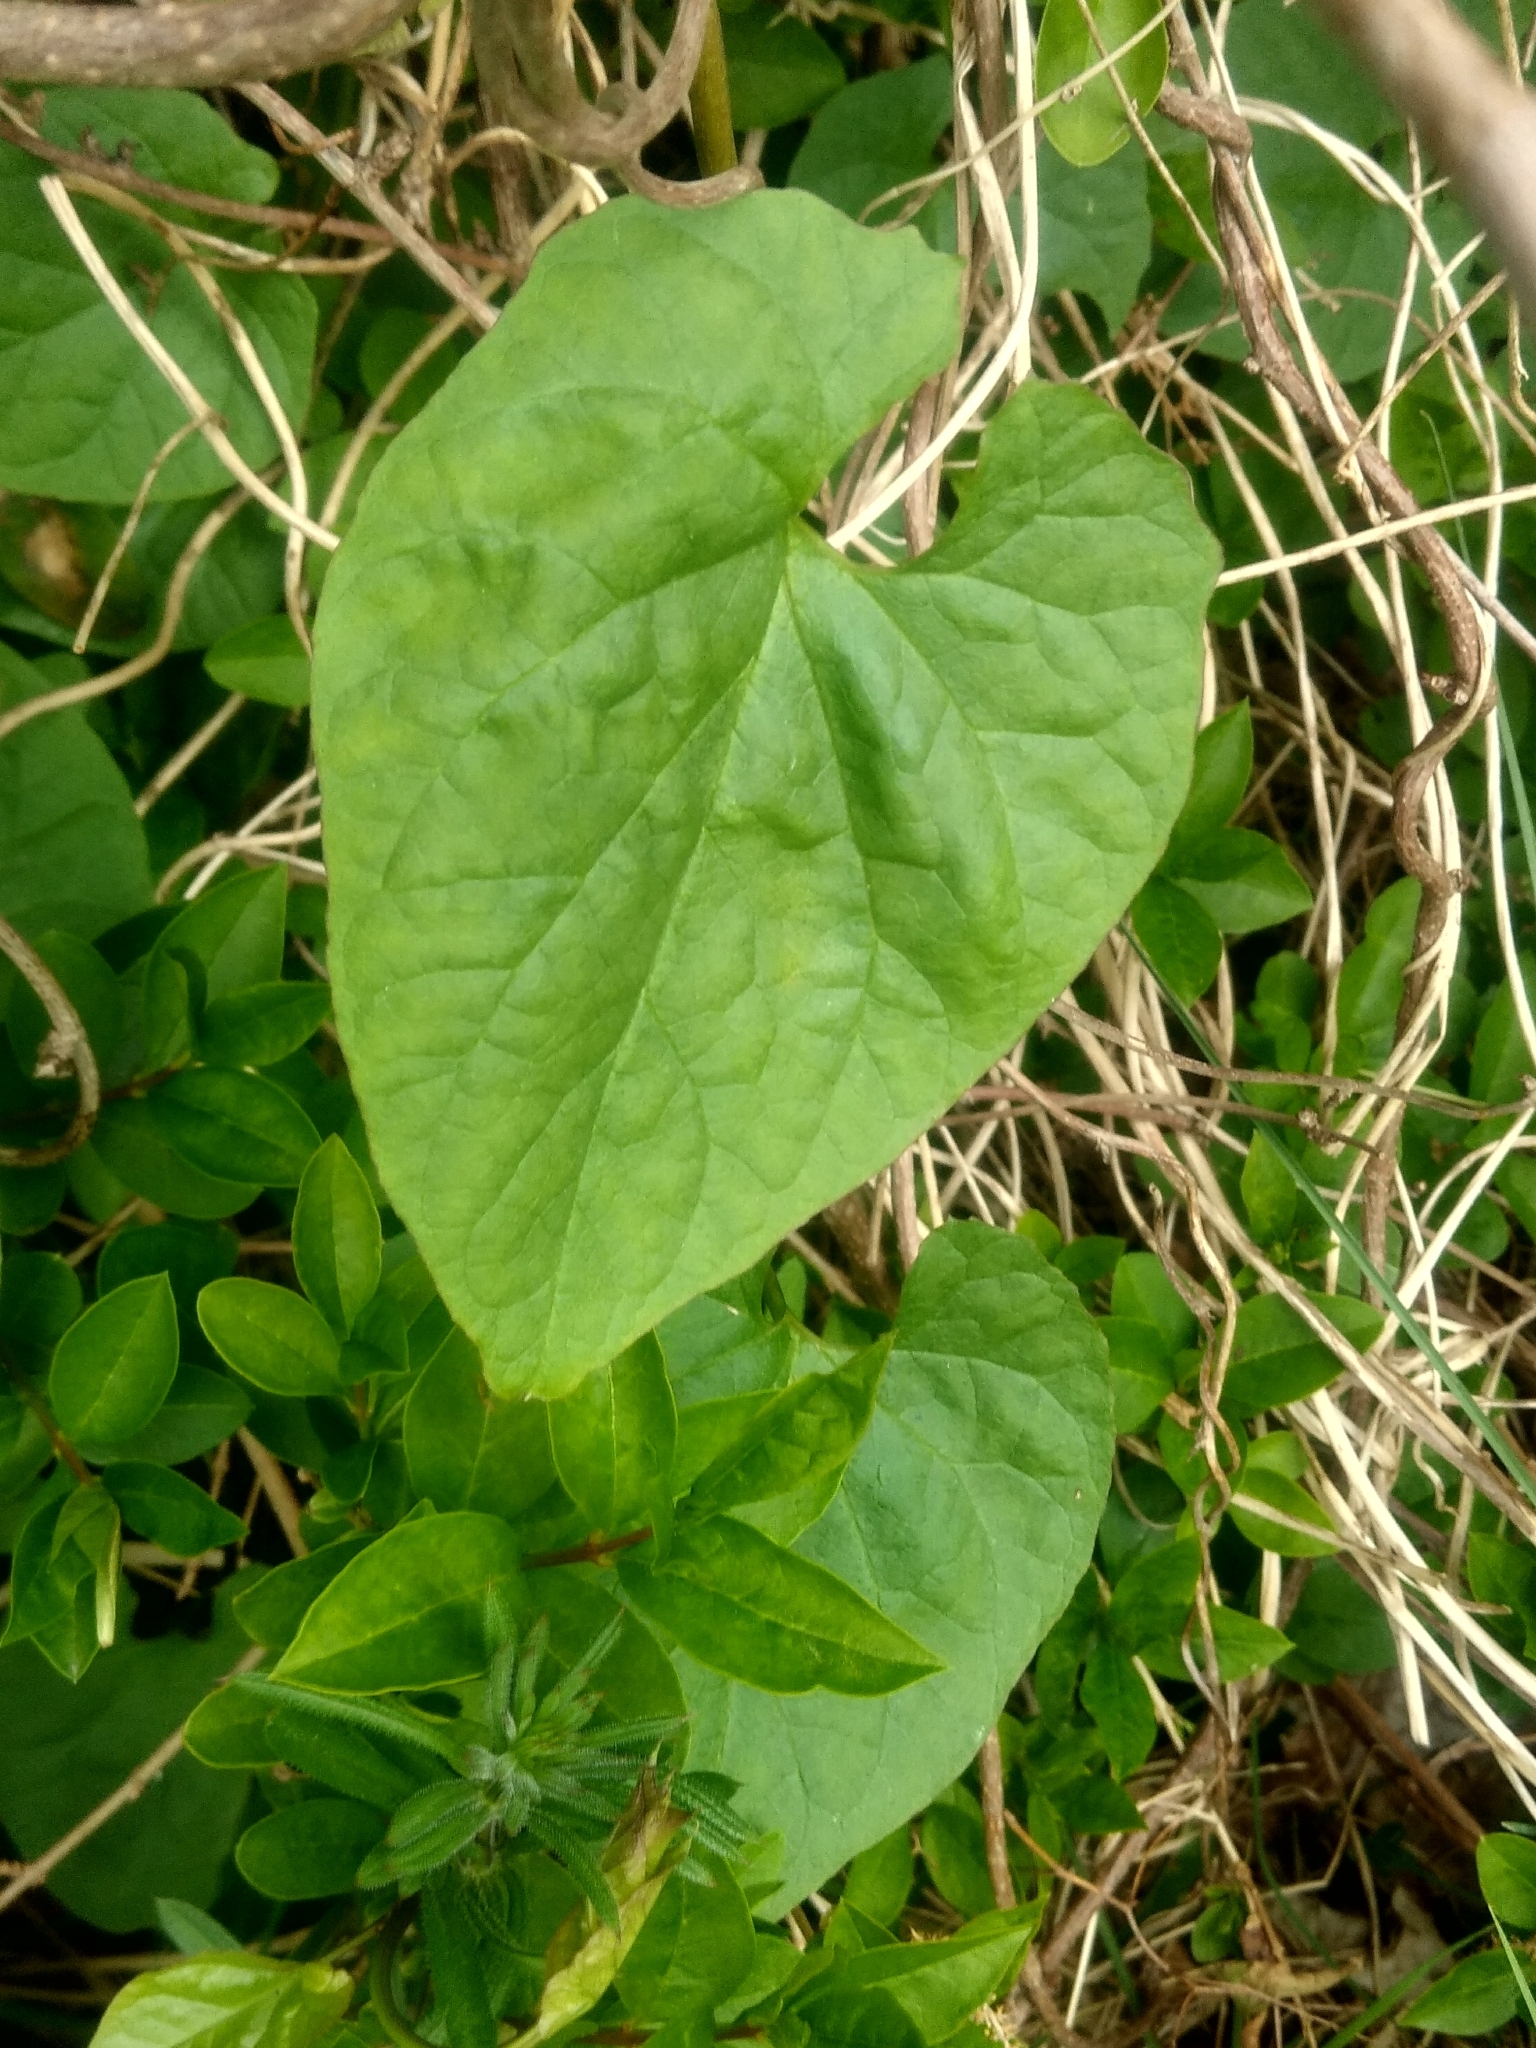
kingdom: Plantae
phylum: Tracheophyta
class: Magnoliopsida
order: Solanales
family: Convolvulaceae
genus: Calystegia
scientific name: Calystegia
